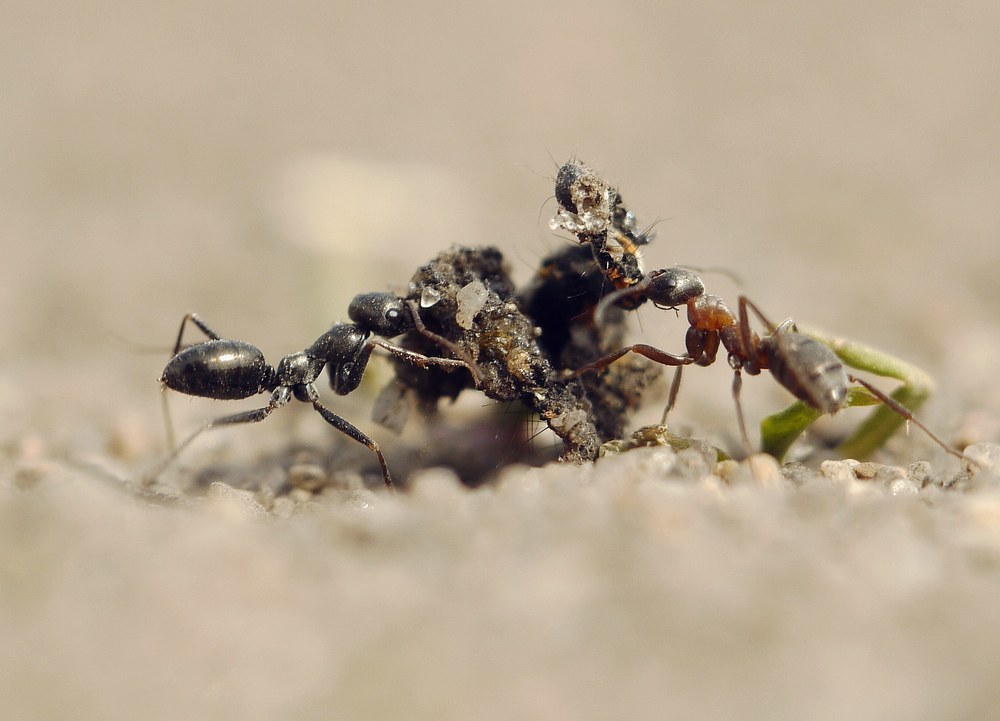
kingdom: Animalia
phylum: Arthropoda
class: Insecta
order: Hymenoptera
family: Formicidae
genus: Cataglyphis
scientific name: Cataglyphis aenescens
